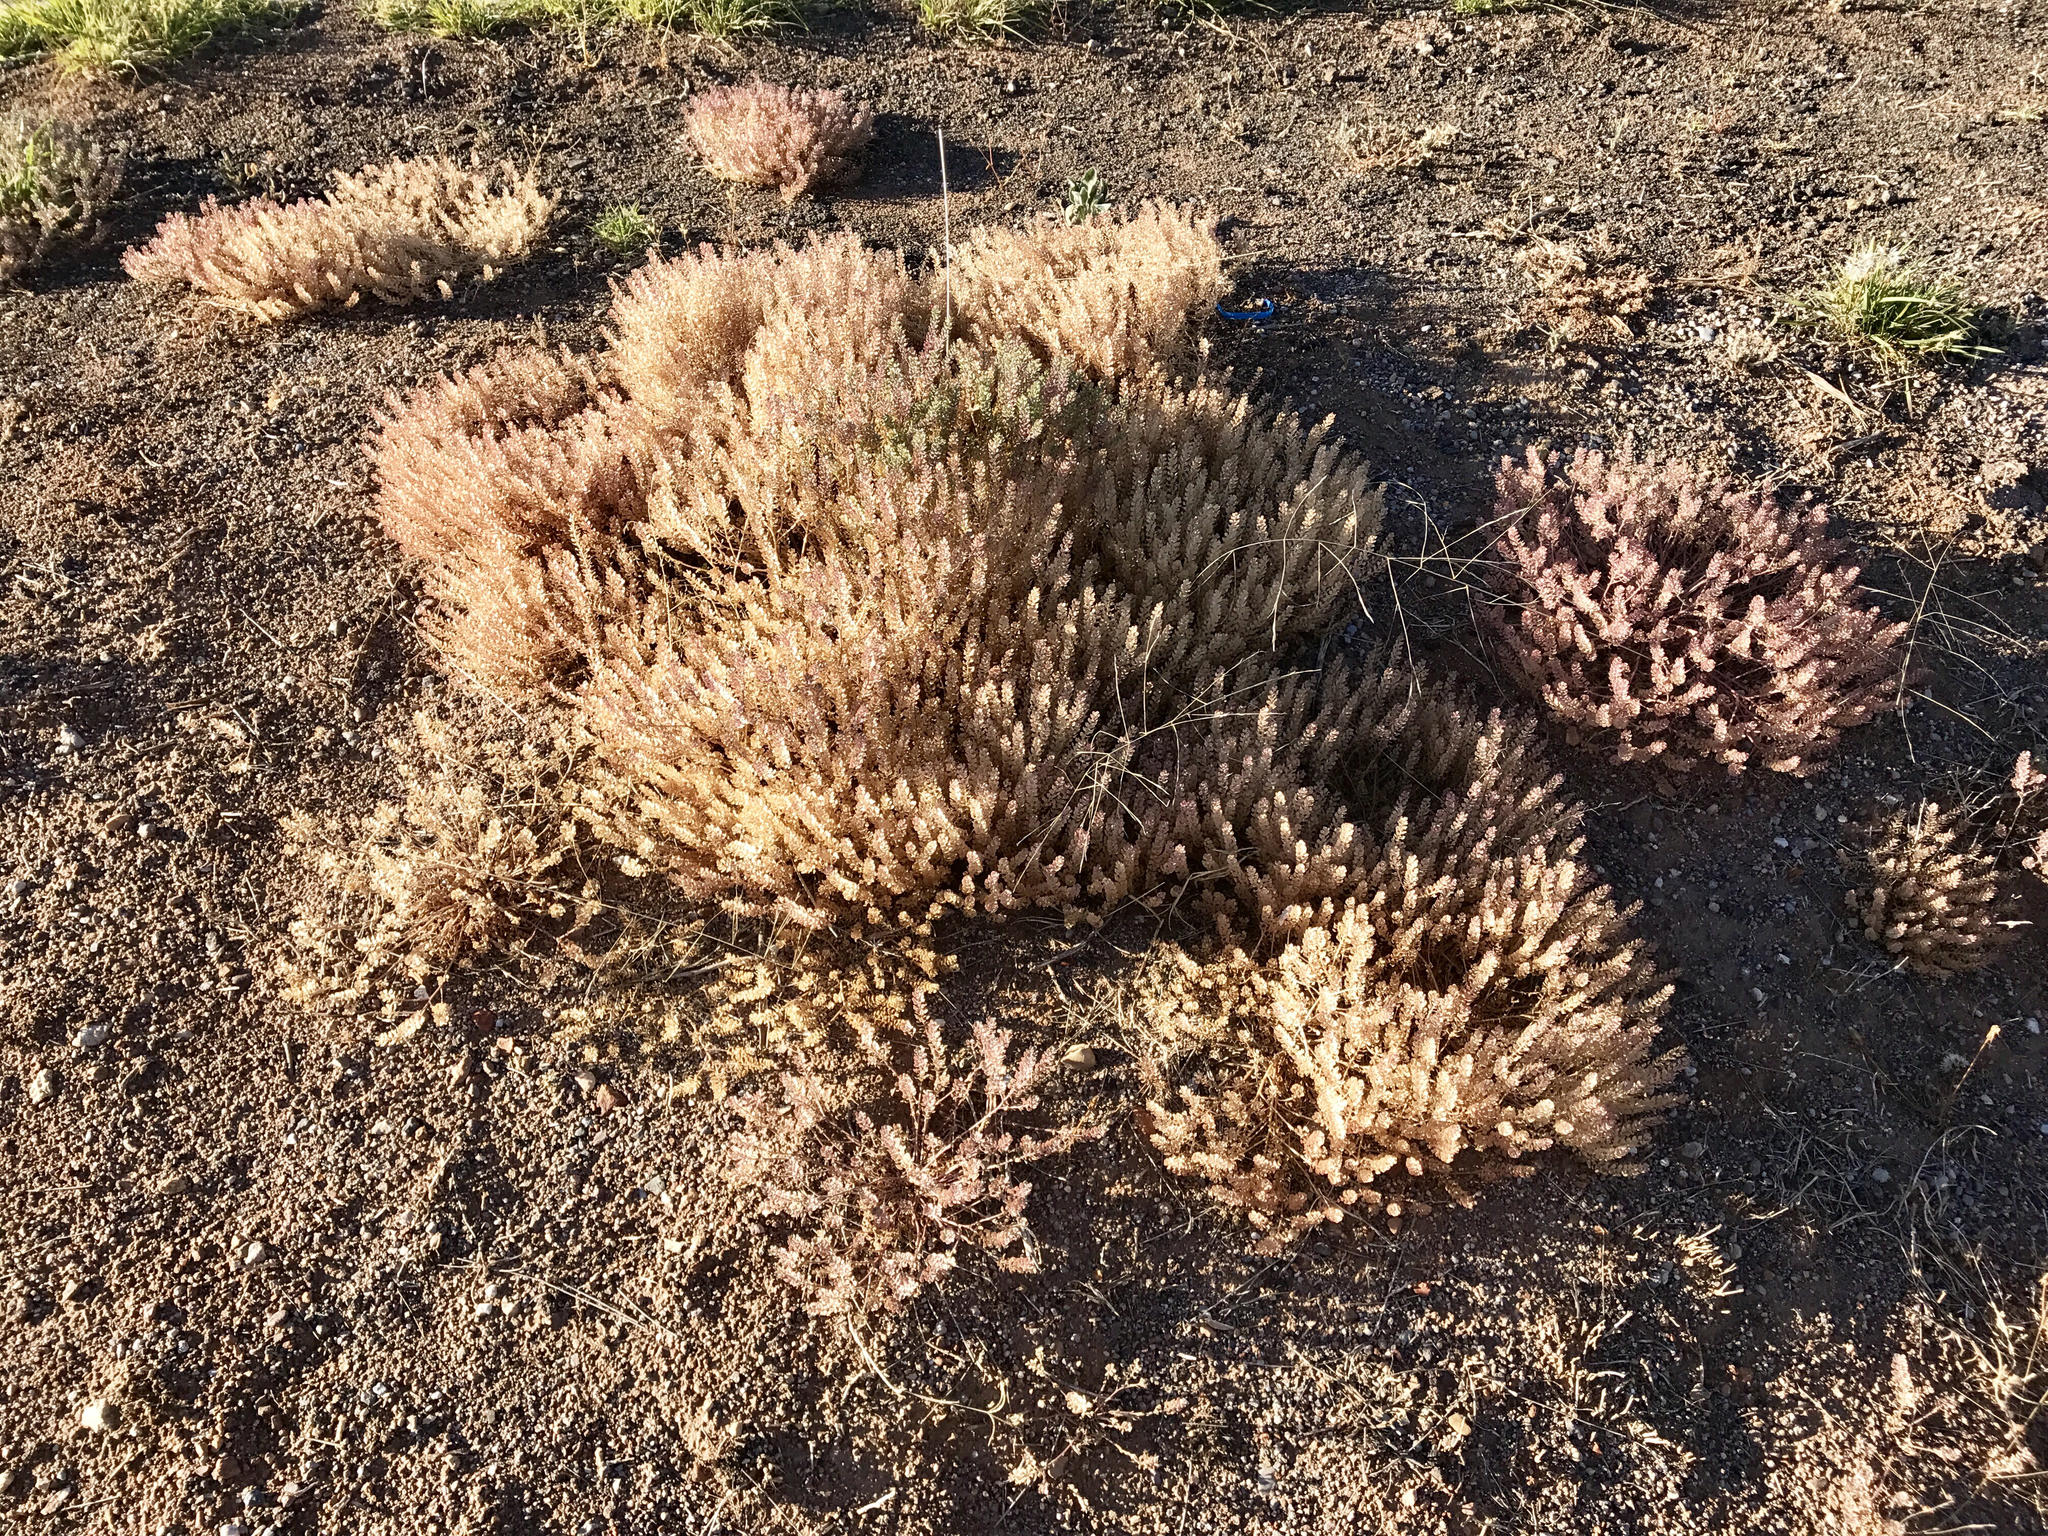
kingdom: Plantae
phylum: Tracheophyta
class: Magnoliopsida
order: Brassicales
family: Brassicaceae
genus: Lepidium
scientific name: Lepidium lasiocarpum
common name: Hairy-pod pepperwort
